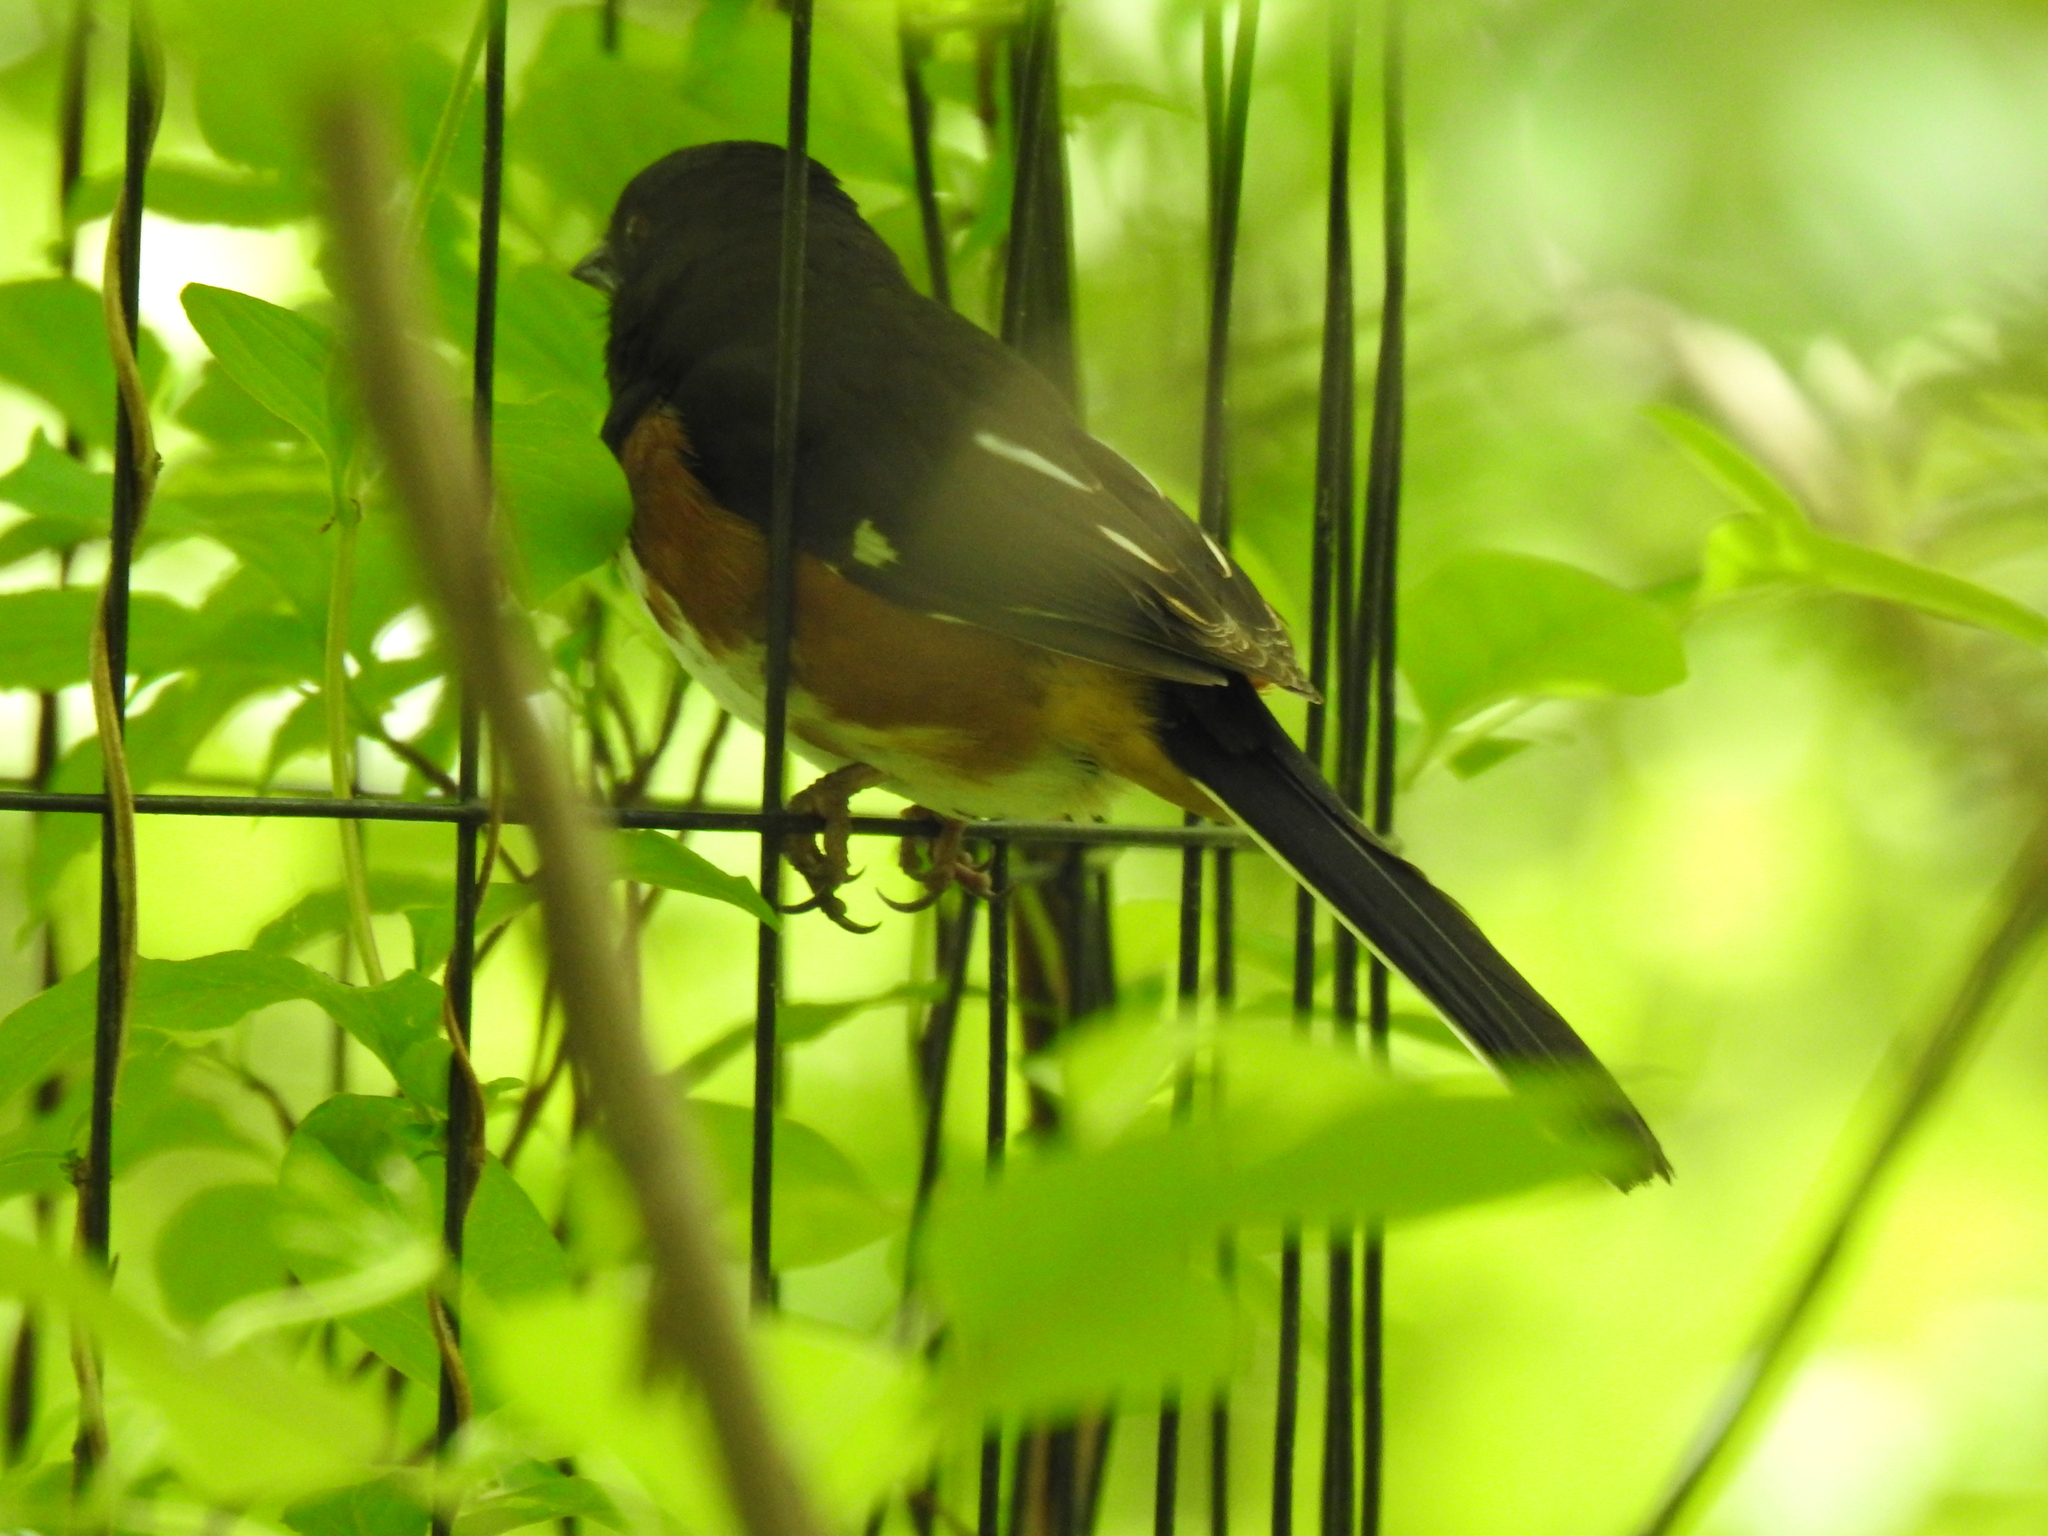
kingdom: Animalia
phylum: Chordata
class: Aves
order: Passeriformes
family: Passerellidae
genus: Pipilo
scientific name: Pipilo erythrophthalmus
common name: Eastern towhee
